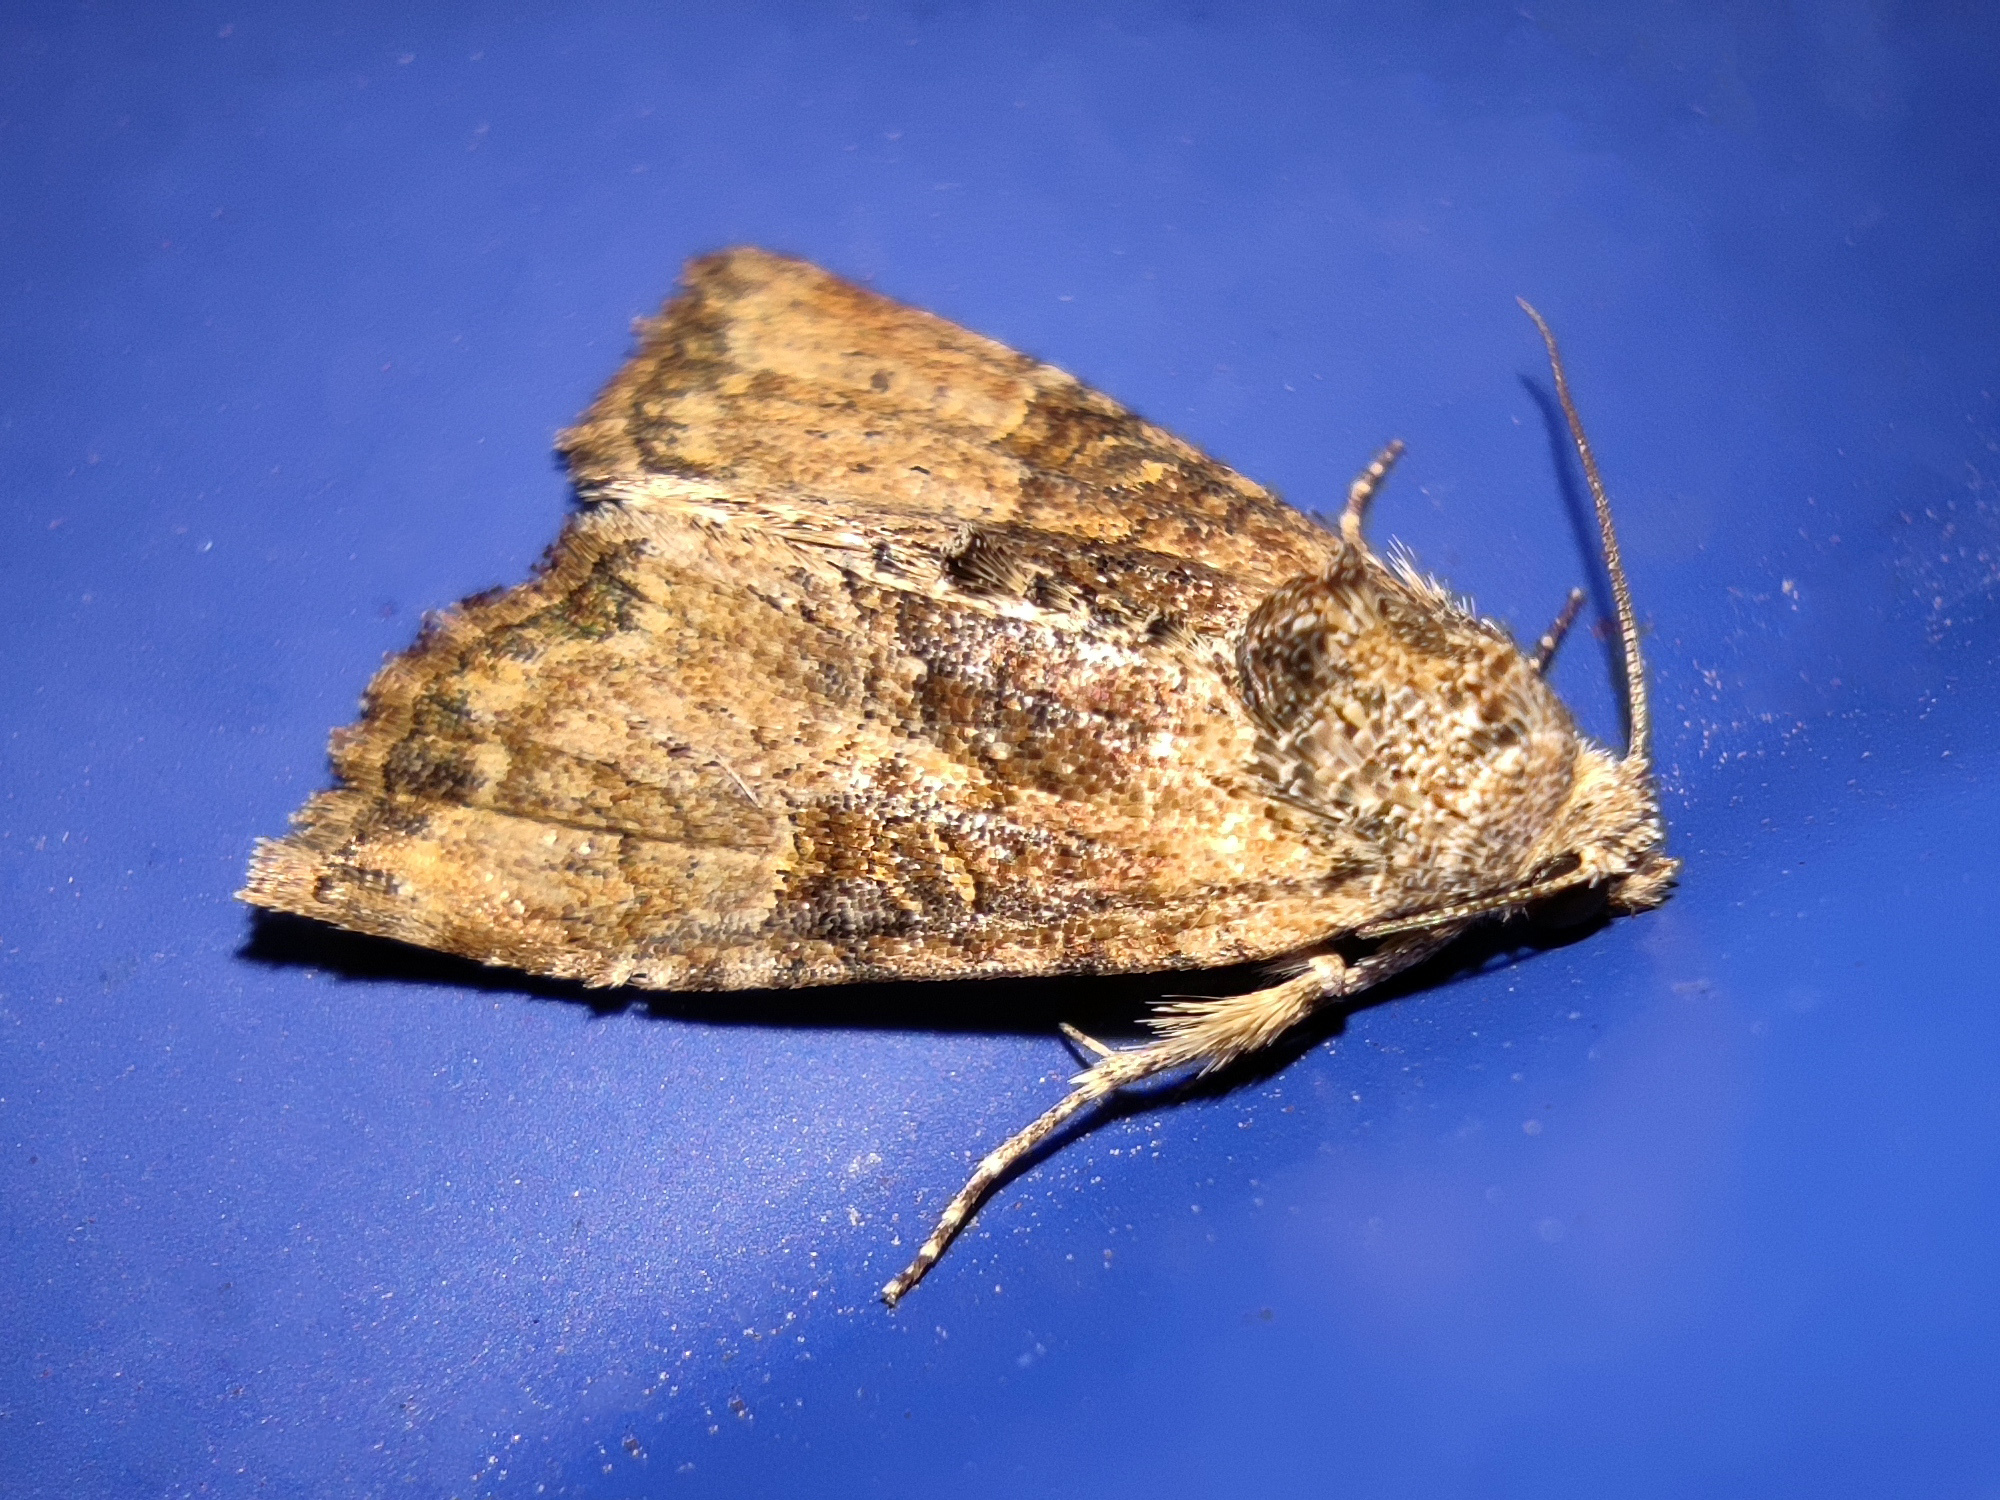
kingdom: Animalia
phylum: Arthropoda
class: Insecta
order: Lepidoptera
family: Noctuidae
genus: Mesoligia
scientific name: Mesoligia furuncula
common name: Cloaked minor
